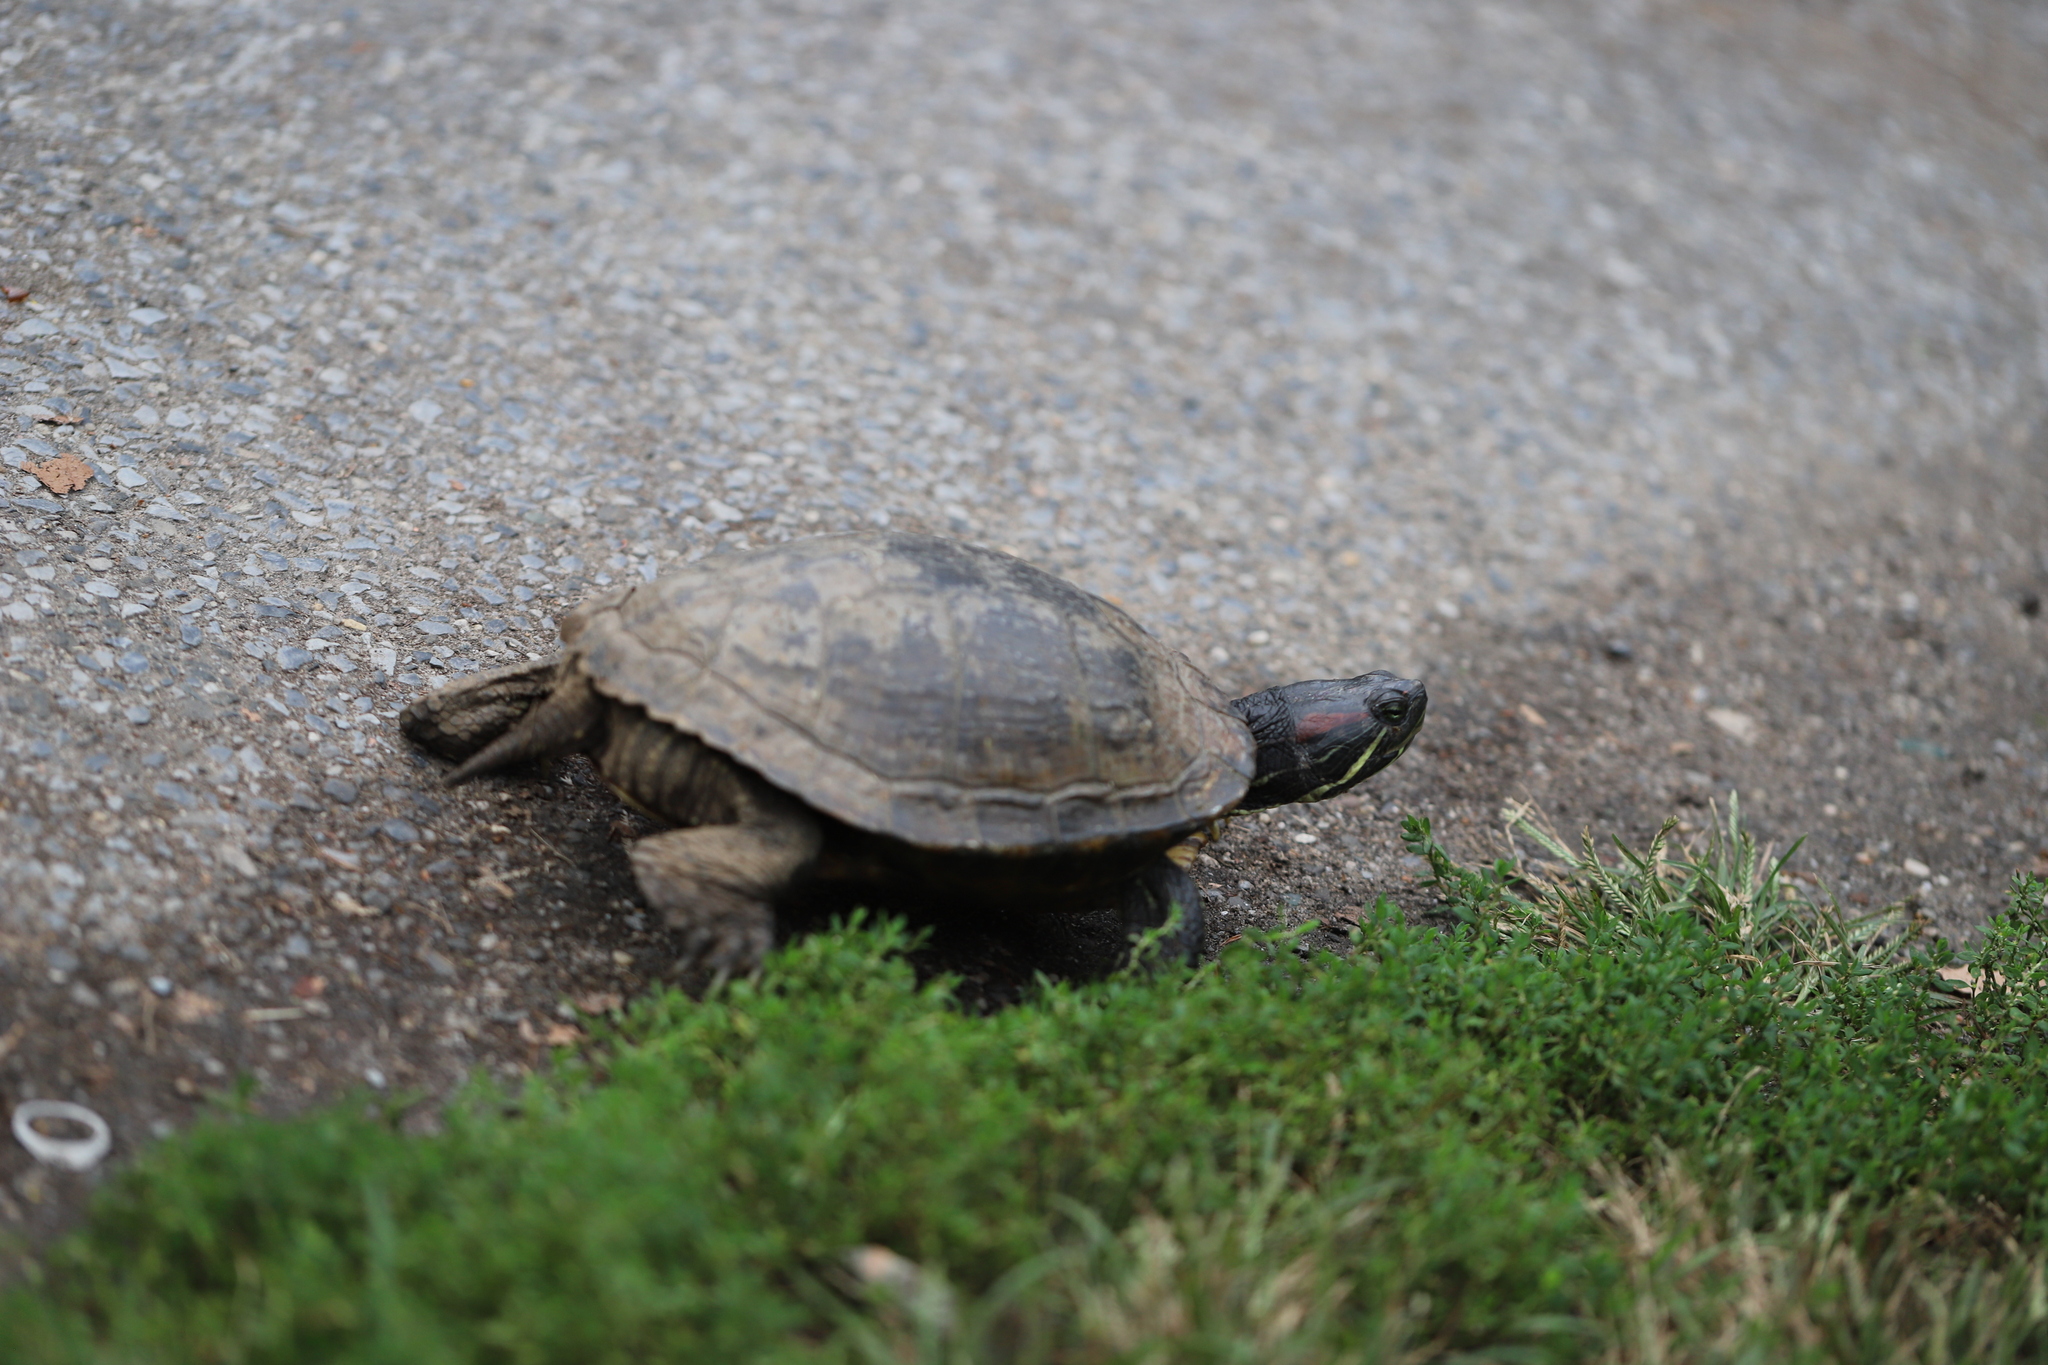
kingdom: Animalia
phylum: Chordata
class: Testudines
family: Emydidae
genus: Trachemys
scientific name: Trachemys scripta
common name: Slider
